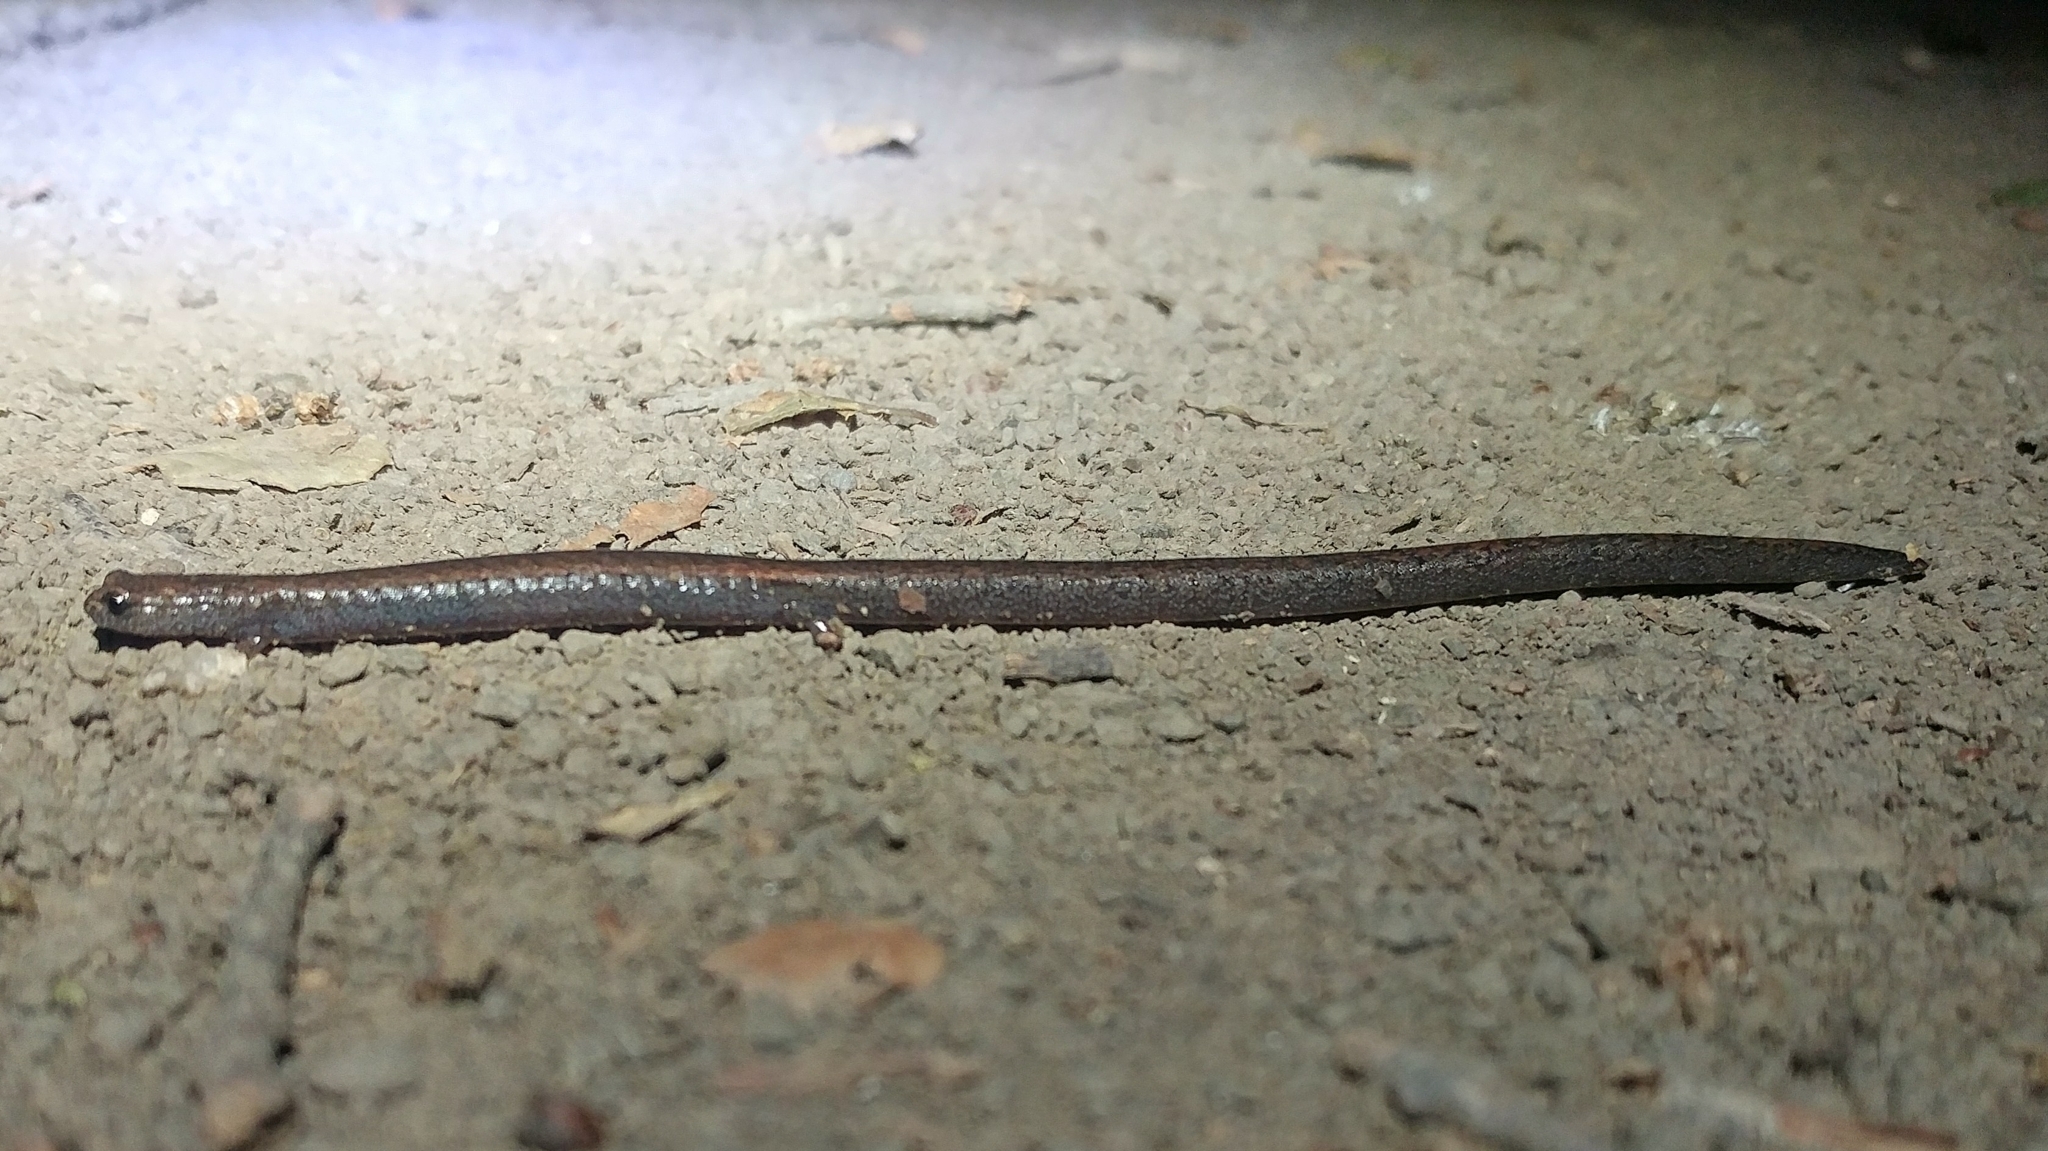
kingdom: Animalia
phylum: Chordata
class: Amphibia
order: Caudata
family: Plethodontidae
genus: Batrachoseps
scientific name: Batrachoseps nigriventris
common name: Black-bellied slender salamander
